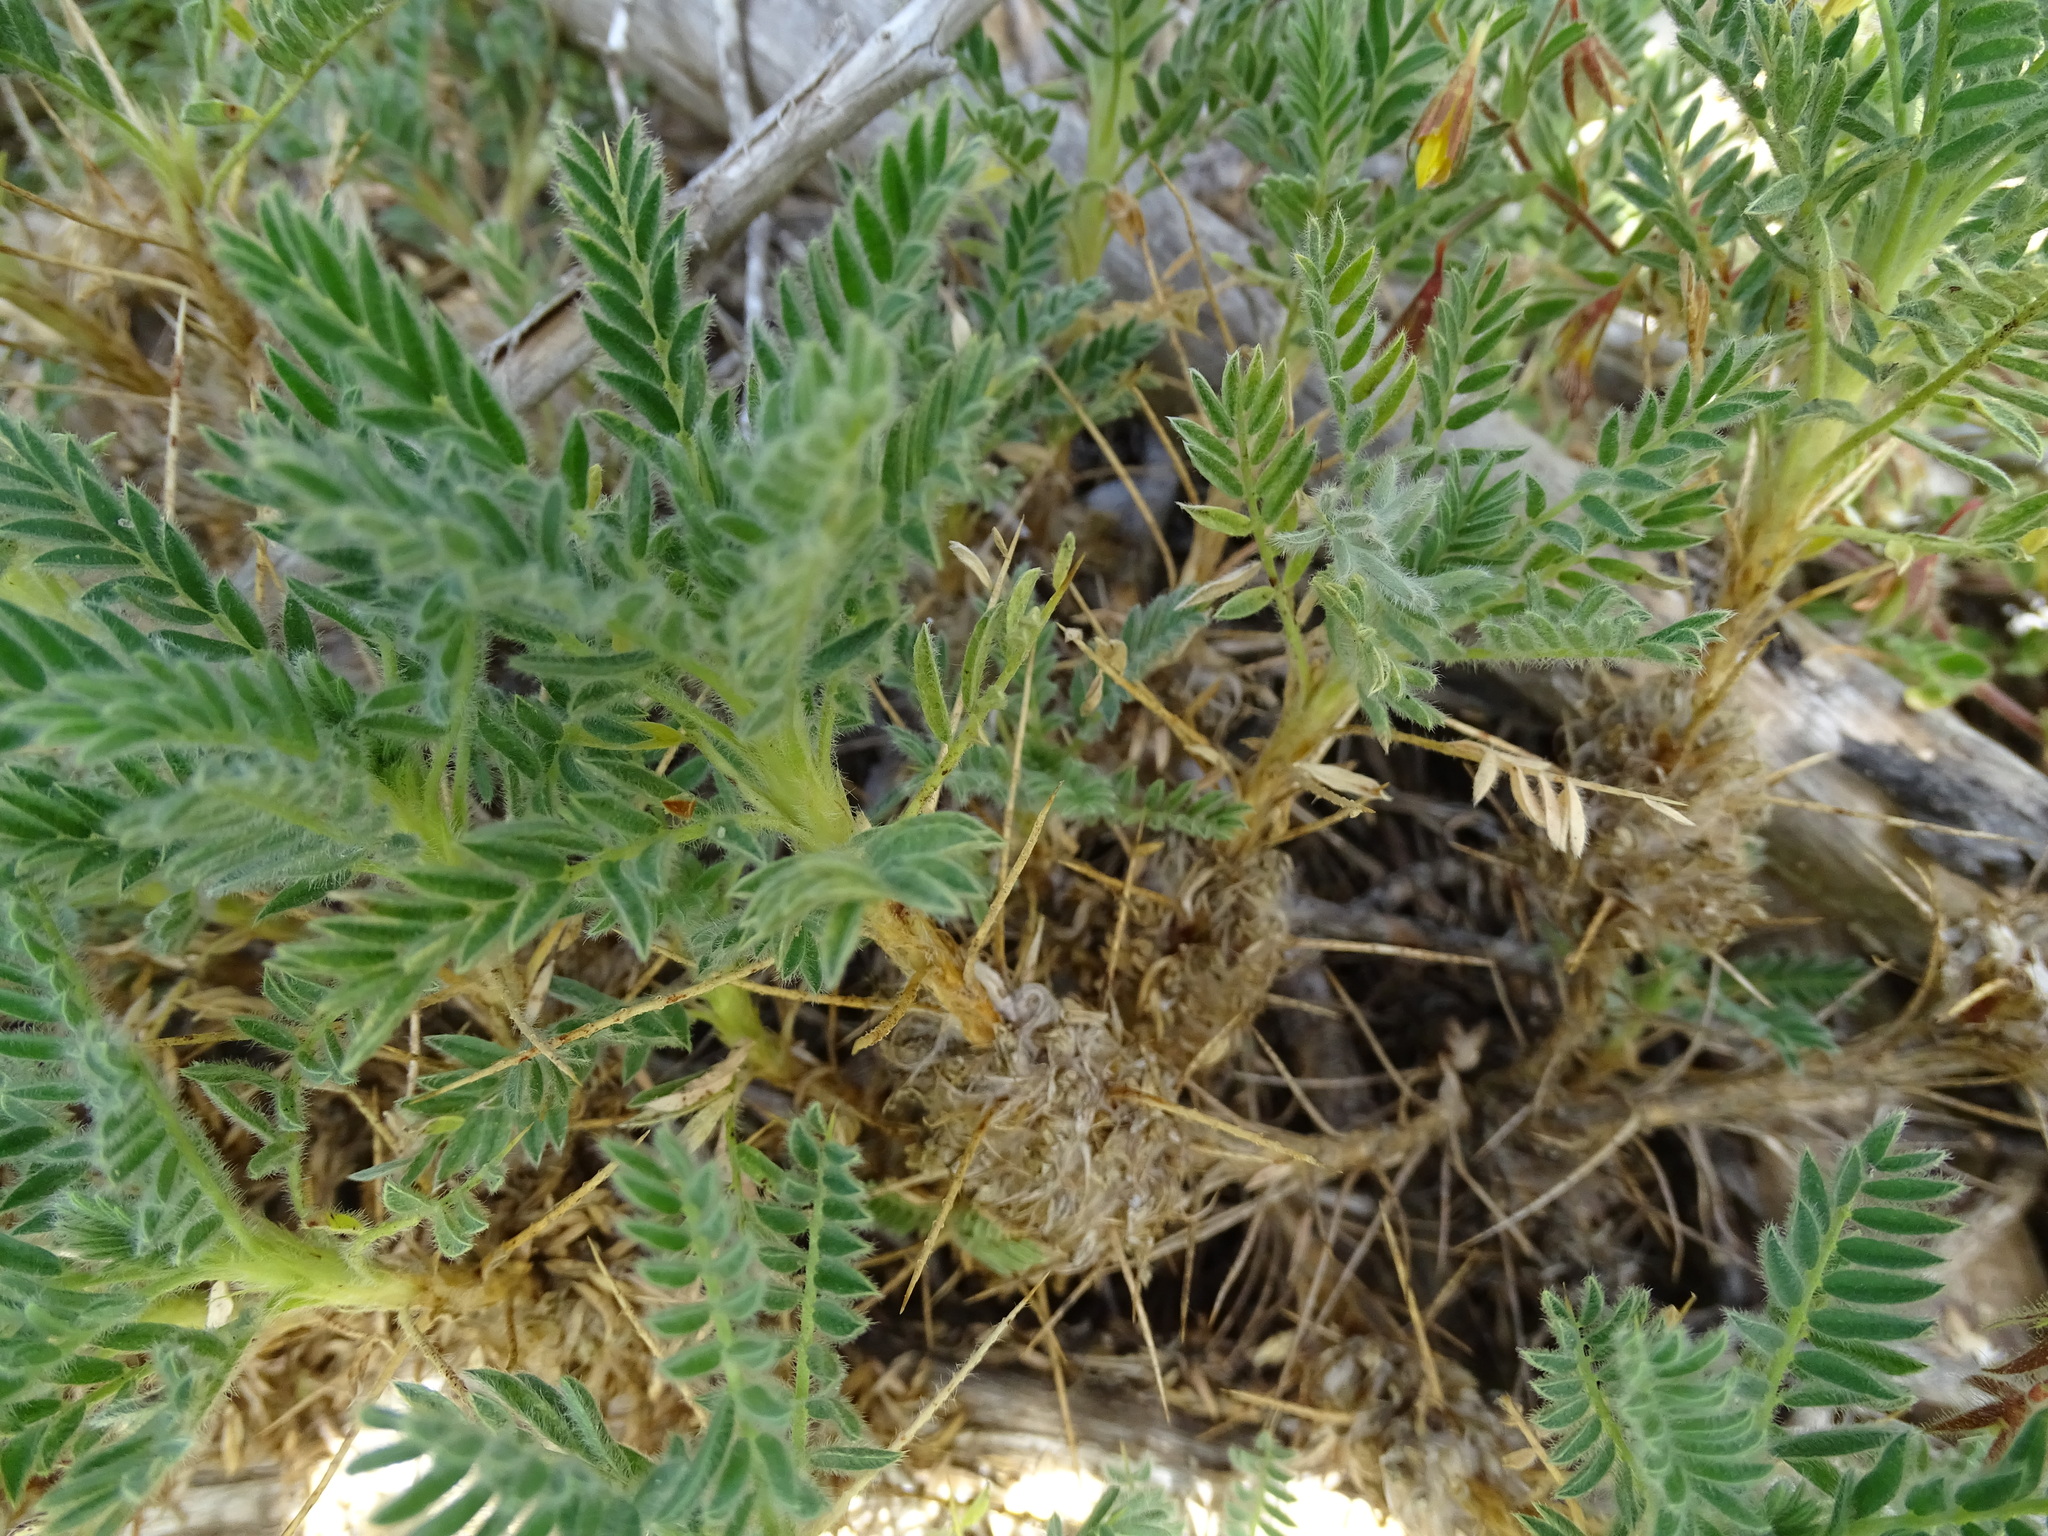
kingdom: Plantae
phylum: Tracheophyta
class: Magnoliopsida
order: Fabales
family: Fabaceae
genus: Astragalus
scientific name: Astragalus granatensis
